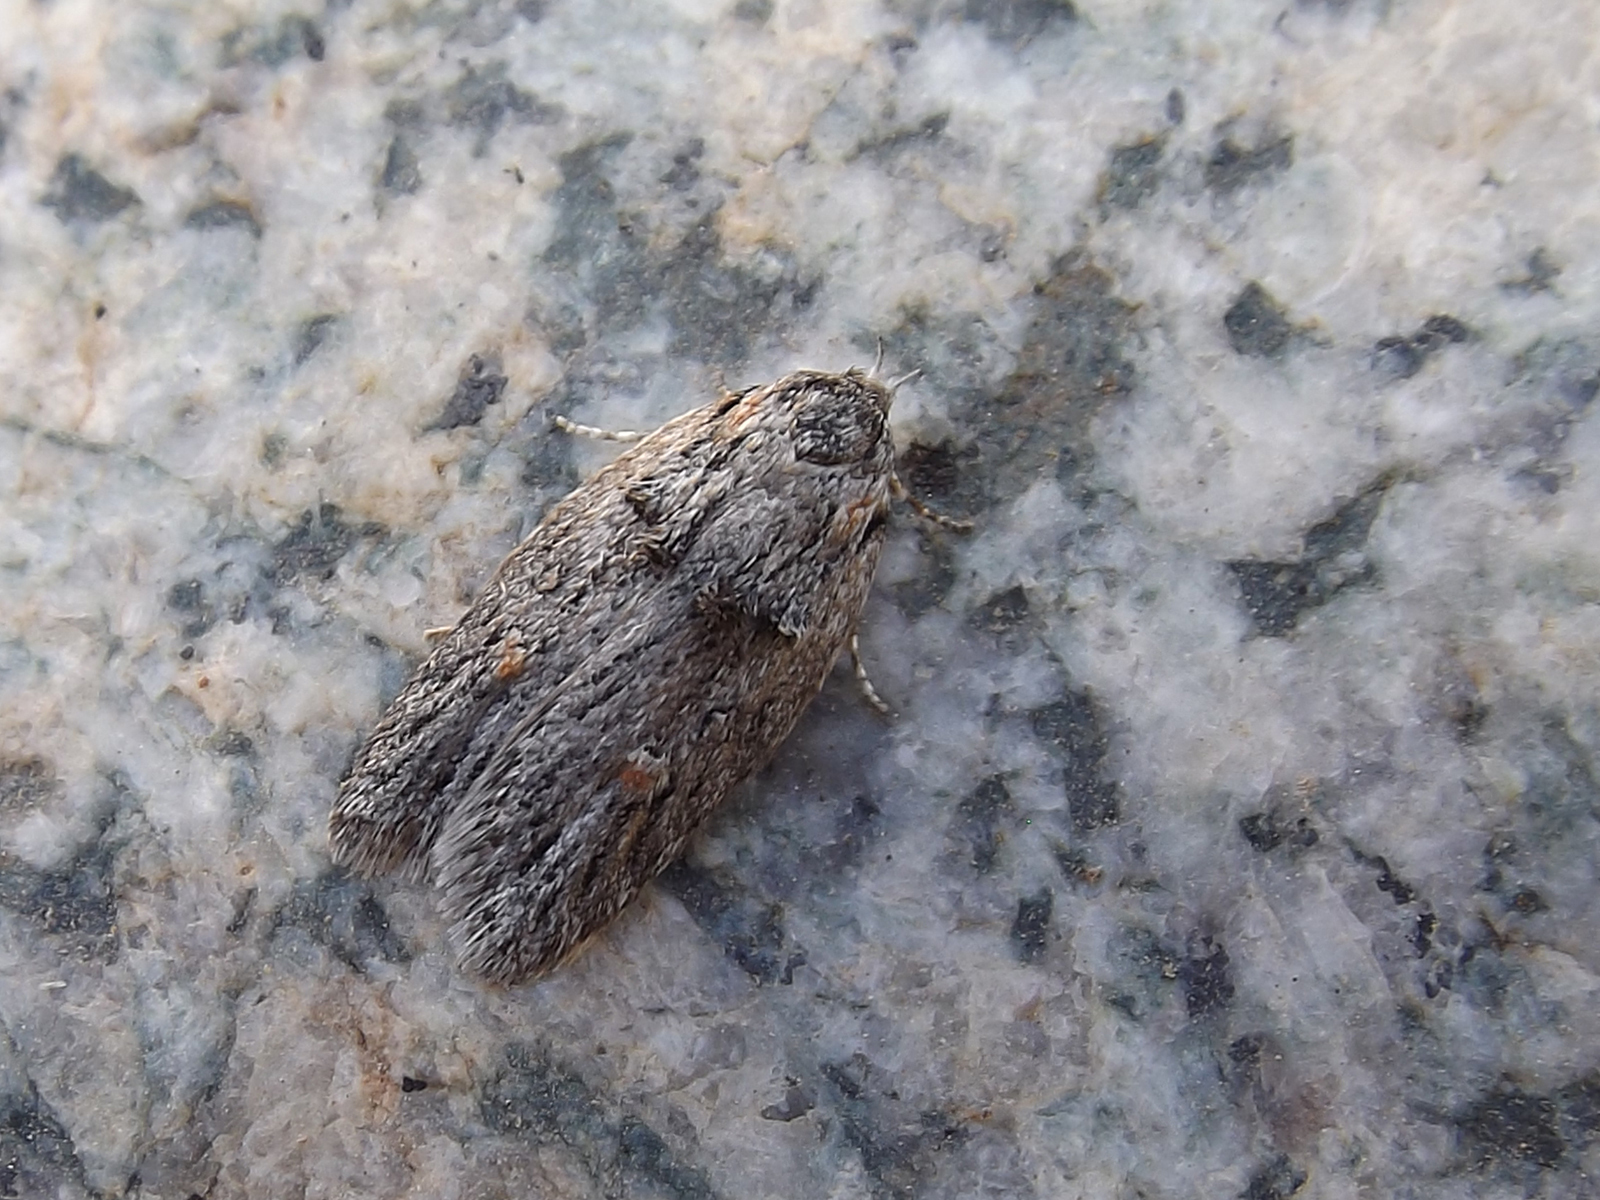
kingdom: Animalia
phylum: Arthropoda
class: Insecta
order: Lepidoptera
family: Oecophoridae
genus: Dillmania
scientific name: Dillmania perezschultheissi
